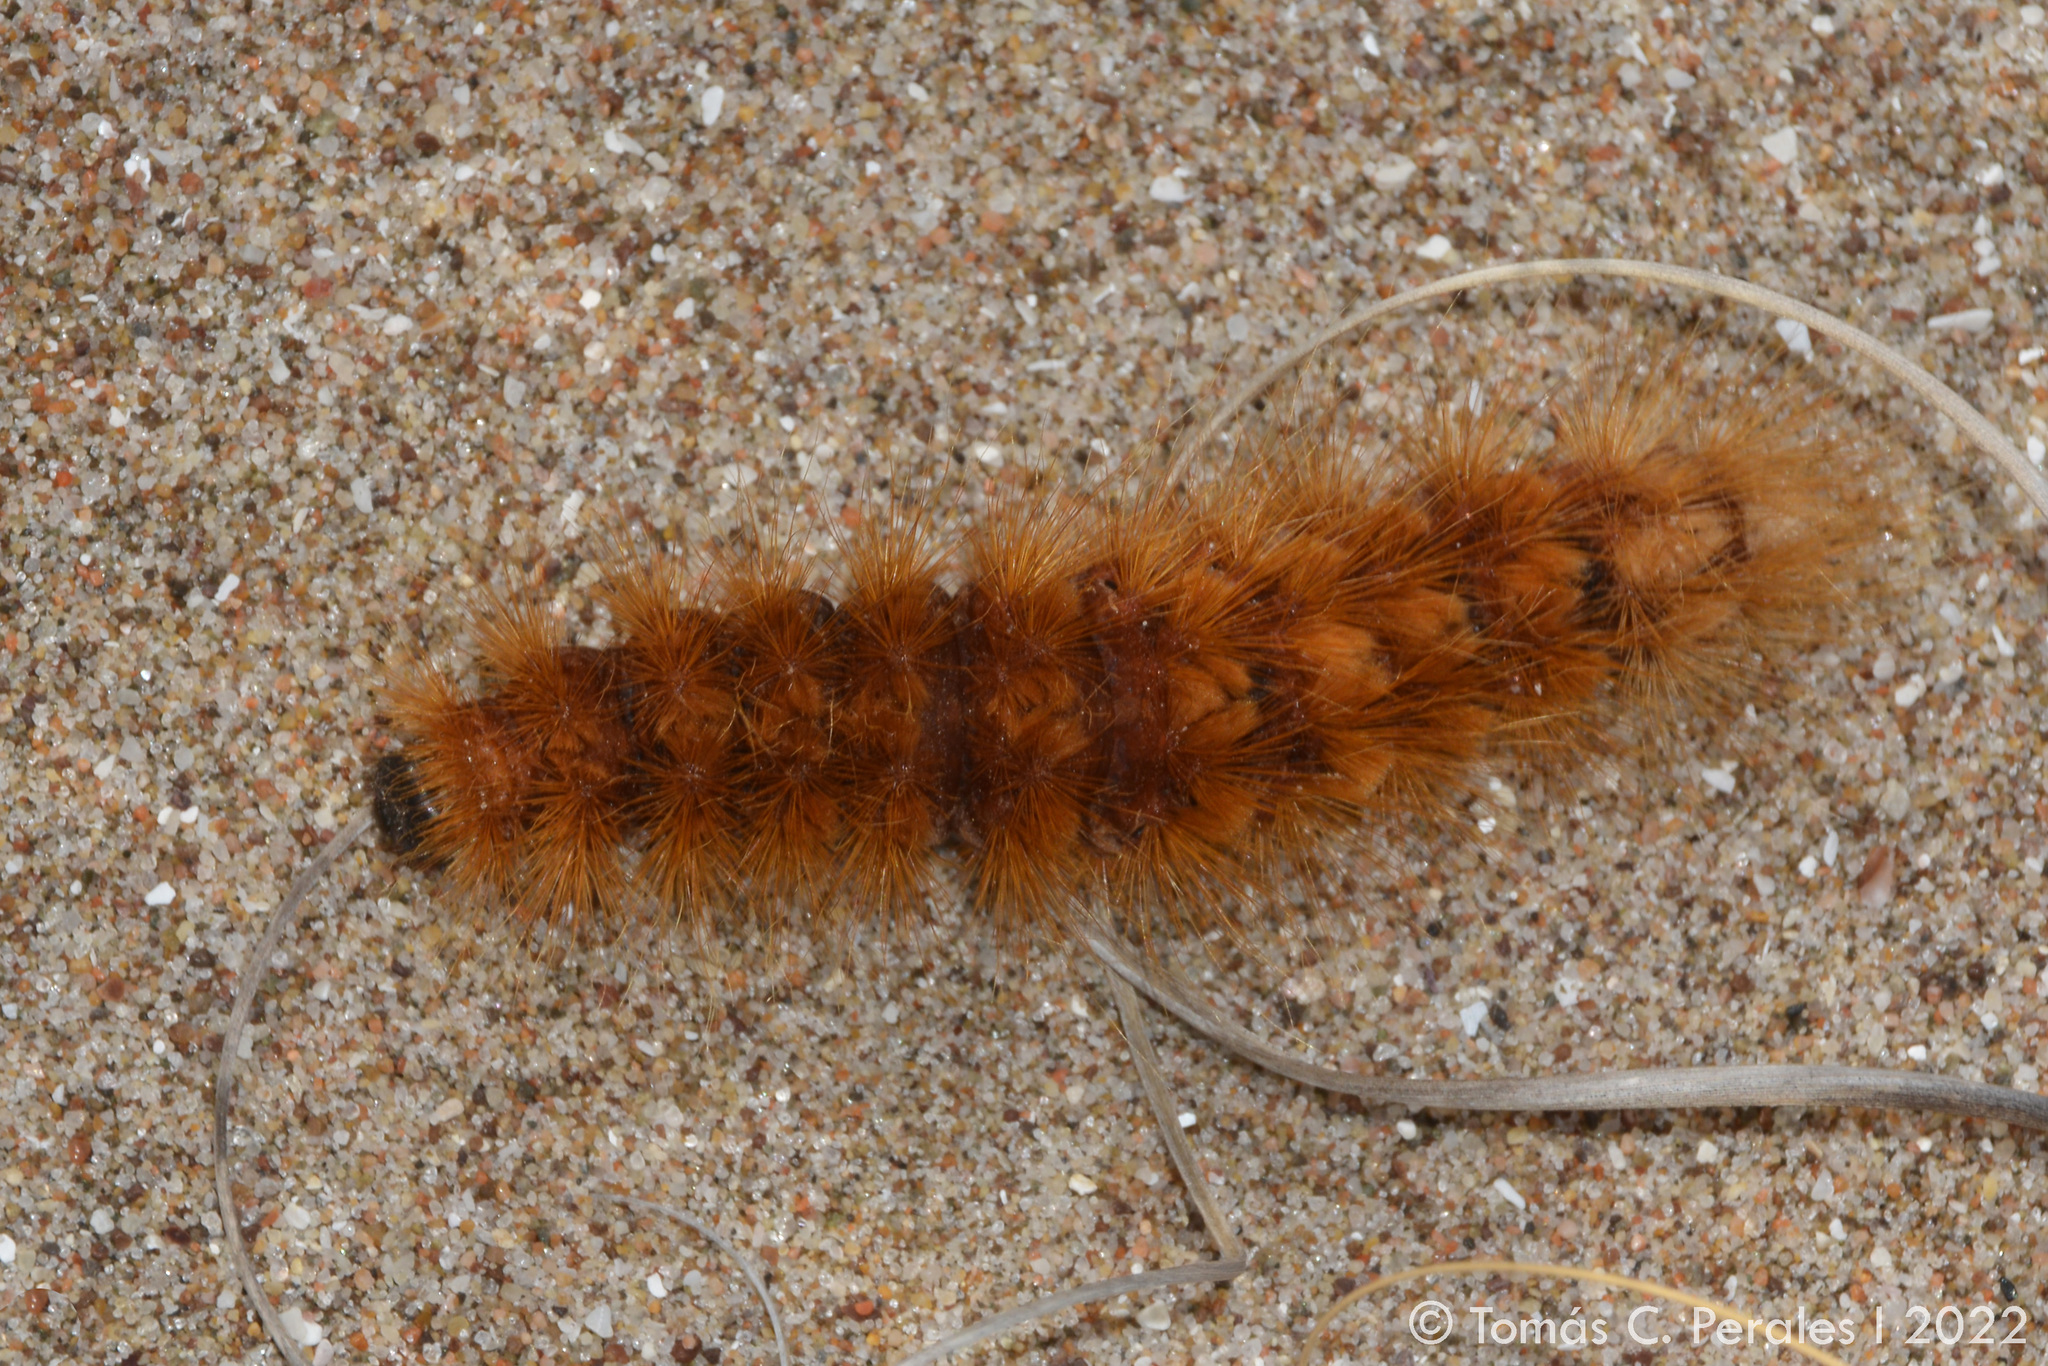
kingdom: Animalia
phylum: Arthropoda
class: Insecta
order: Lepidoptera
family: Erebidae
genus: Paracles
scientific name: Paracles severa
